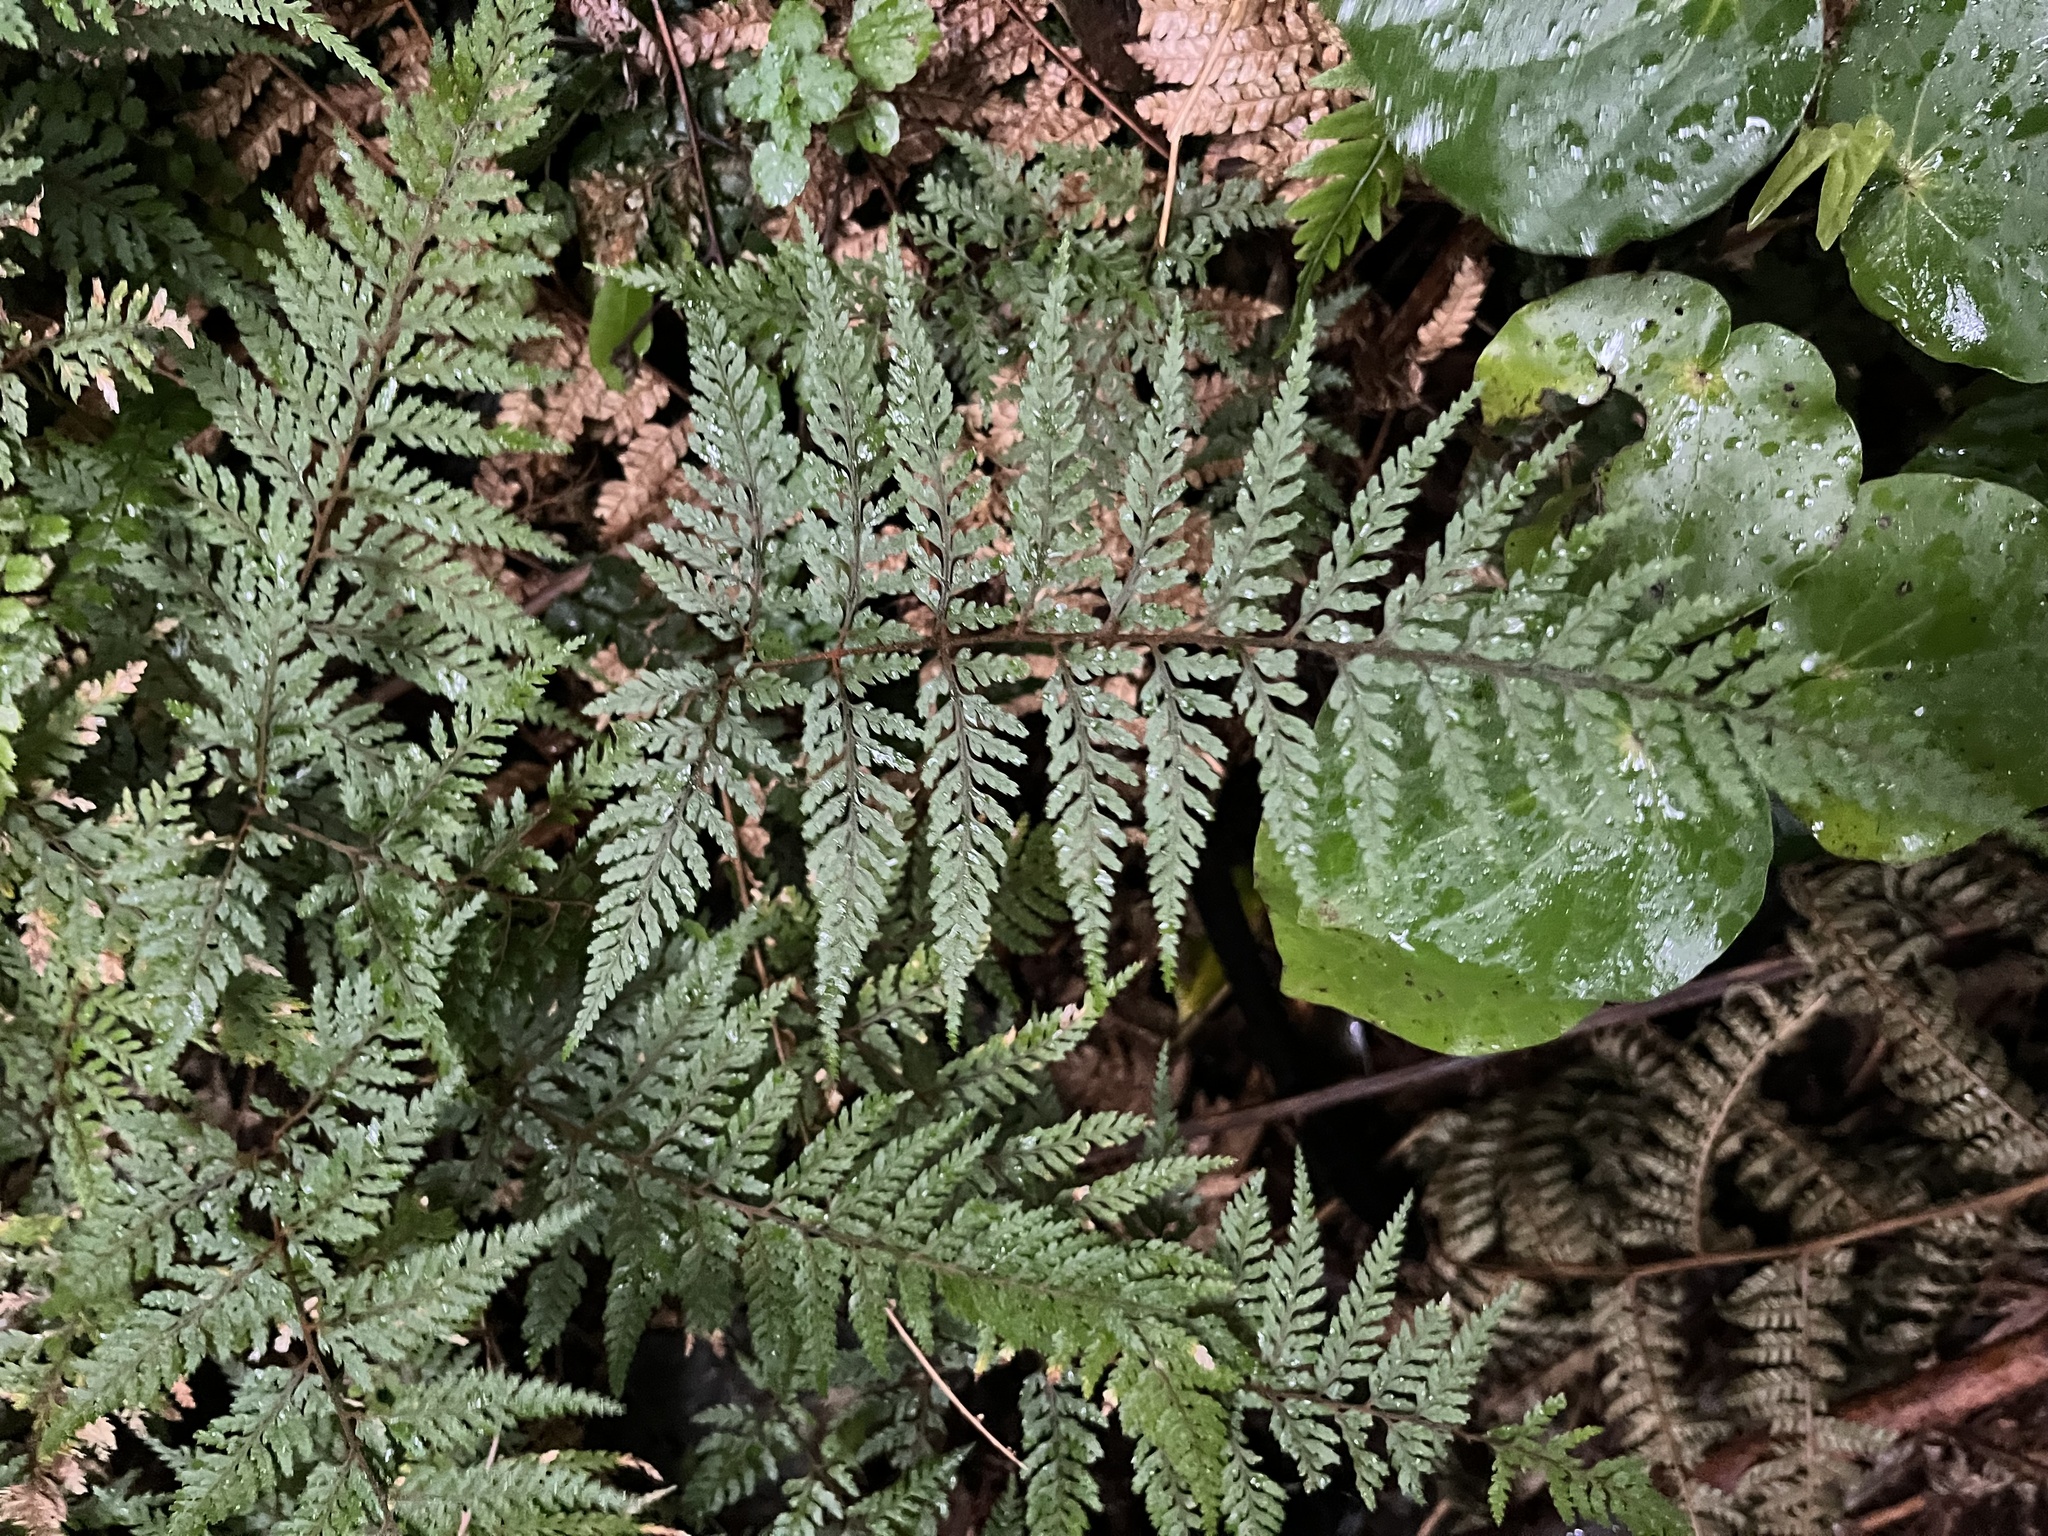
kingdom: Plantae
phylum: Tracheophyta
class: Polypodiopsida
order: Polypodiales
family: Dryopteridaceae
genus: Parapolystichum
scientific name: Parapolystichum glabellum
